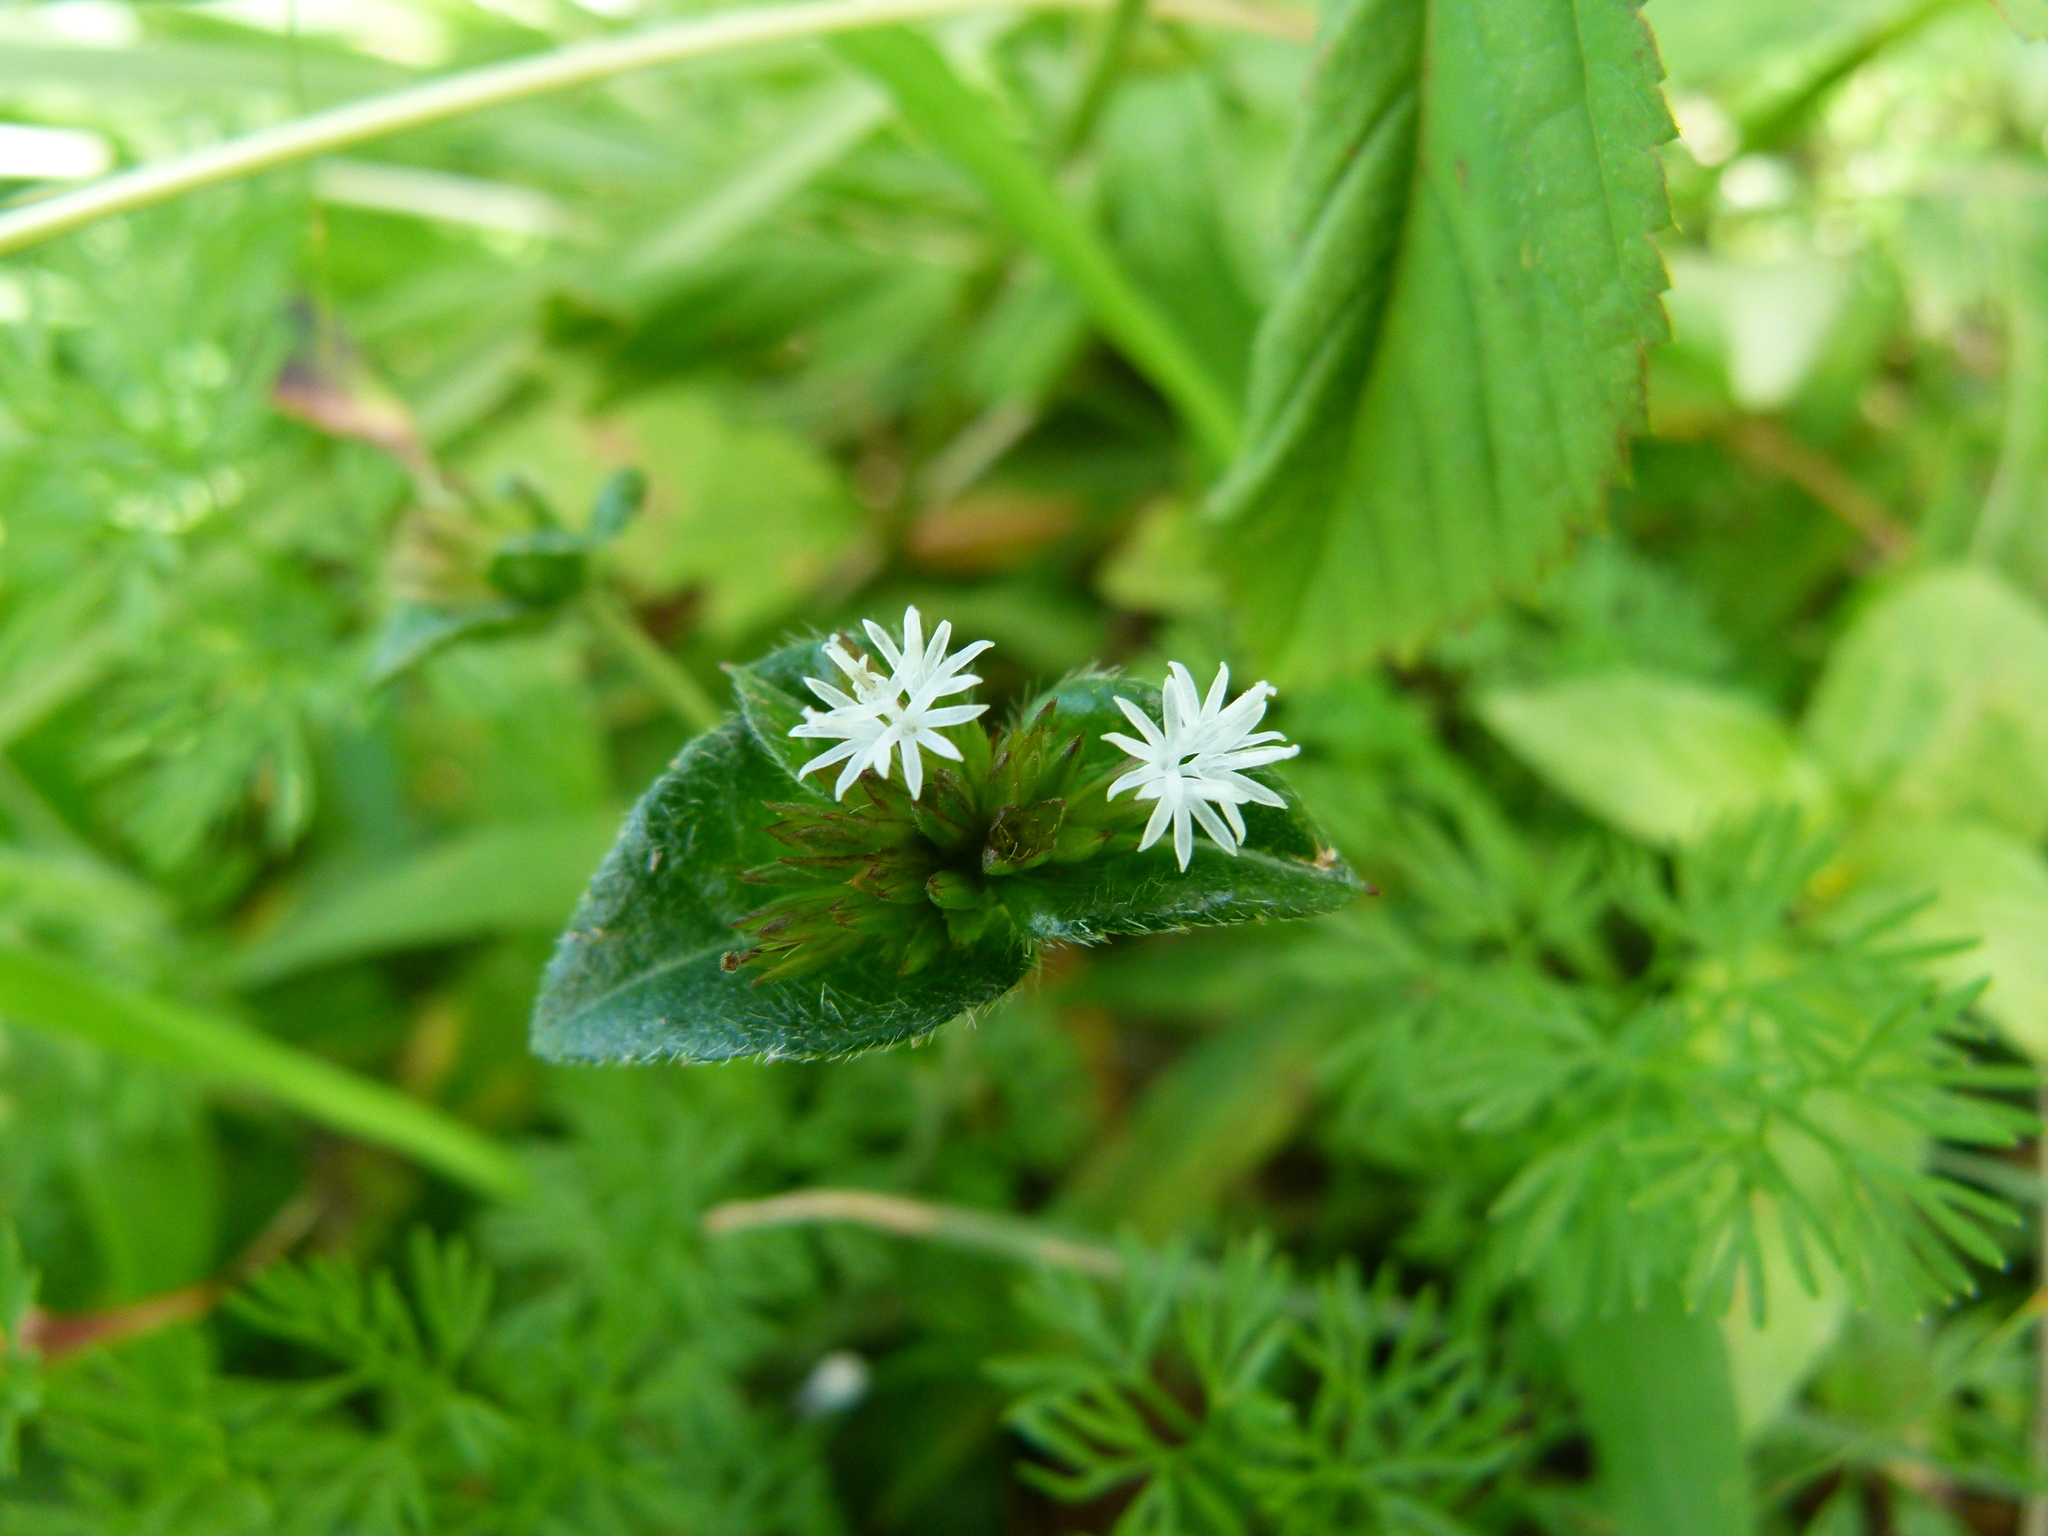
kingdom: Plantae
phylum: Tracheophyta
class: Magnoliopsida
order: Asterales
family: Asteraceae
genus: Elephantopus
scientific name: Elephantopus mollis
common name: Soft elephantsfoot
